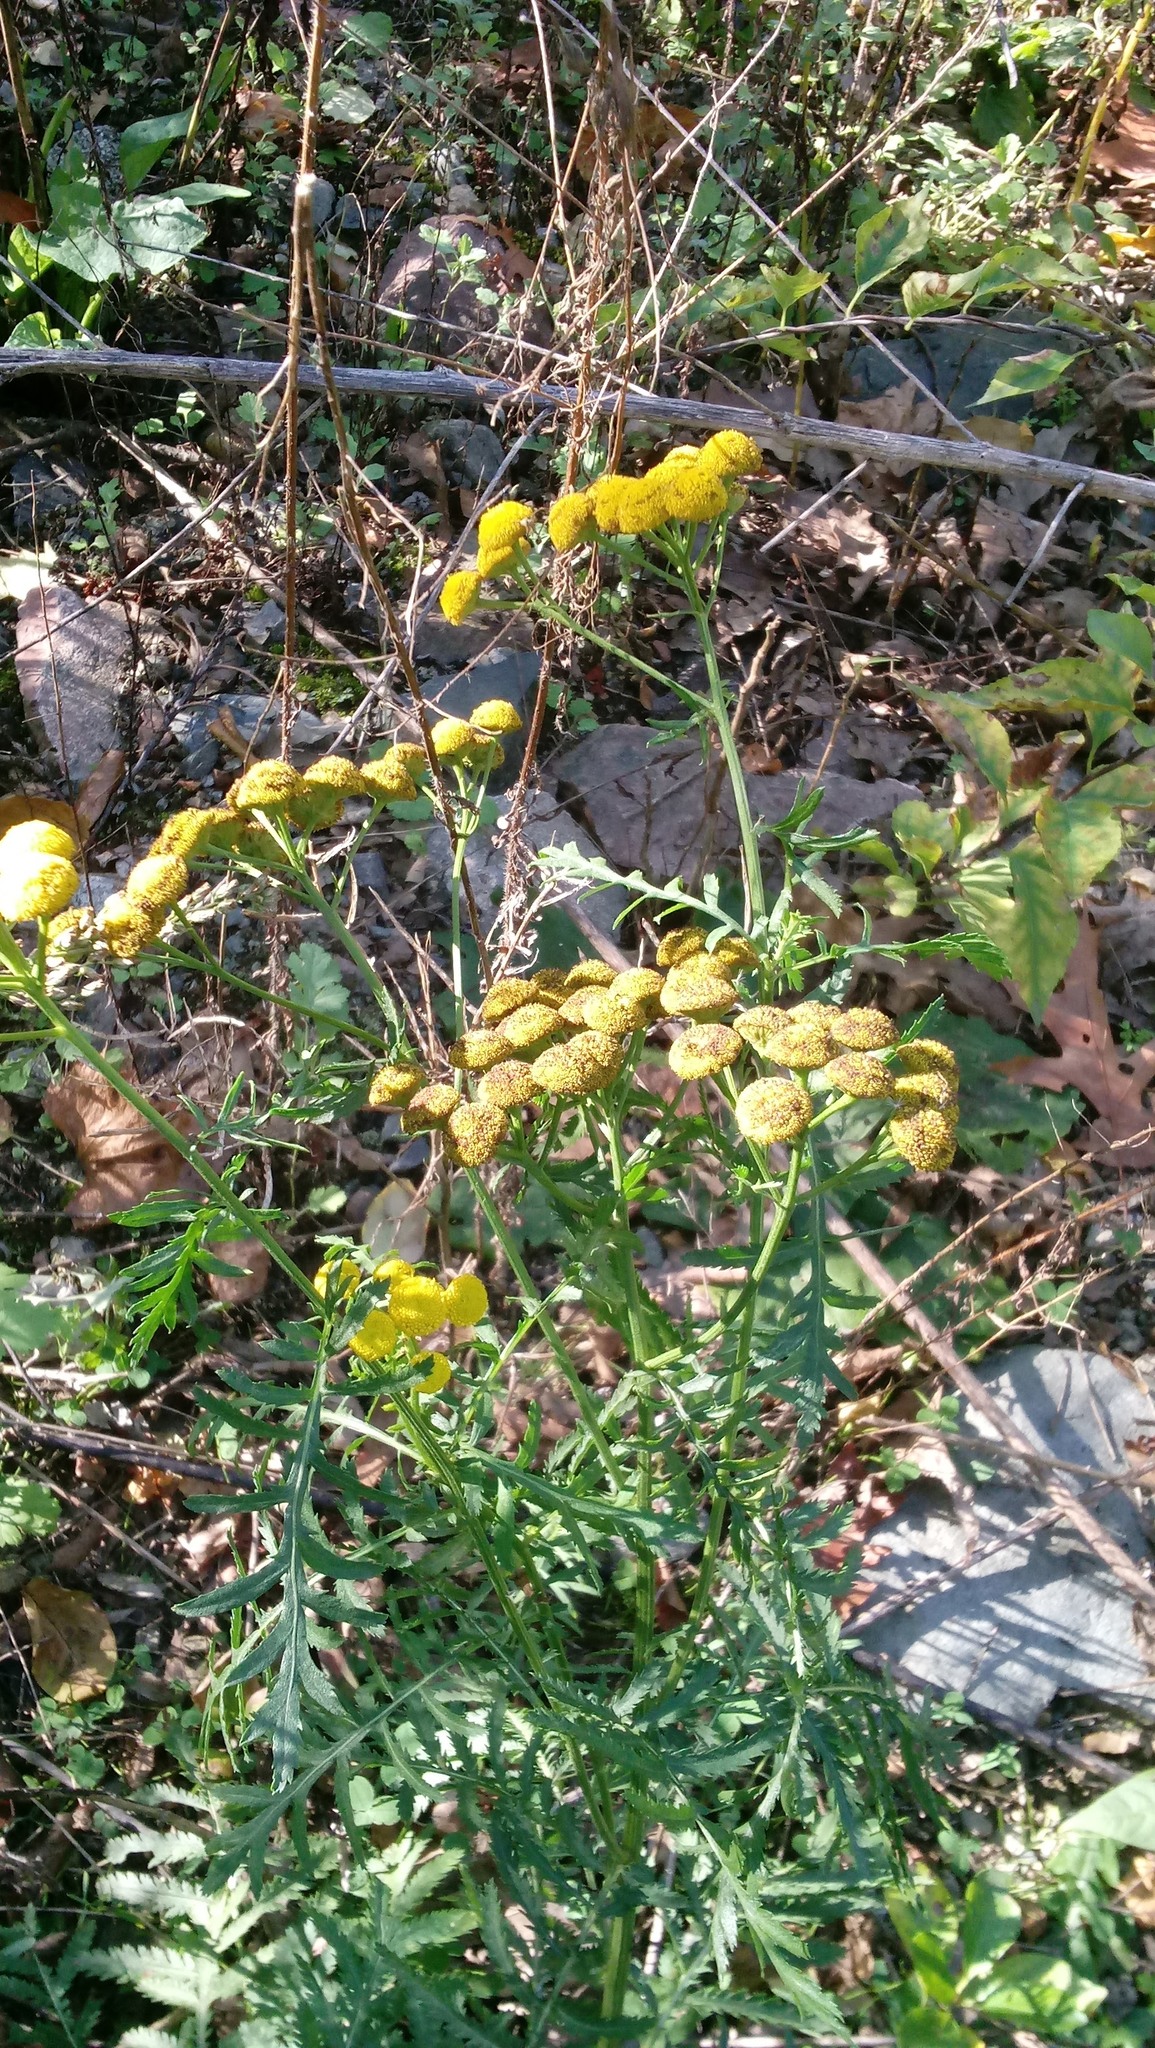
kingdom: Plantae
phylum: Tracheophyta
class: Magnoliopsida
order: Asterales
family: Asteraceae
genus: Tanacetum
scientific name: Tanacetum vulgare
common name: Common tansy
